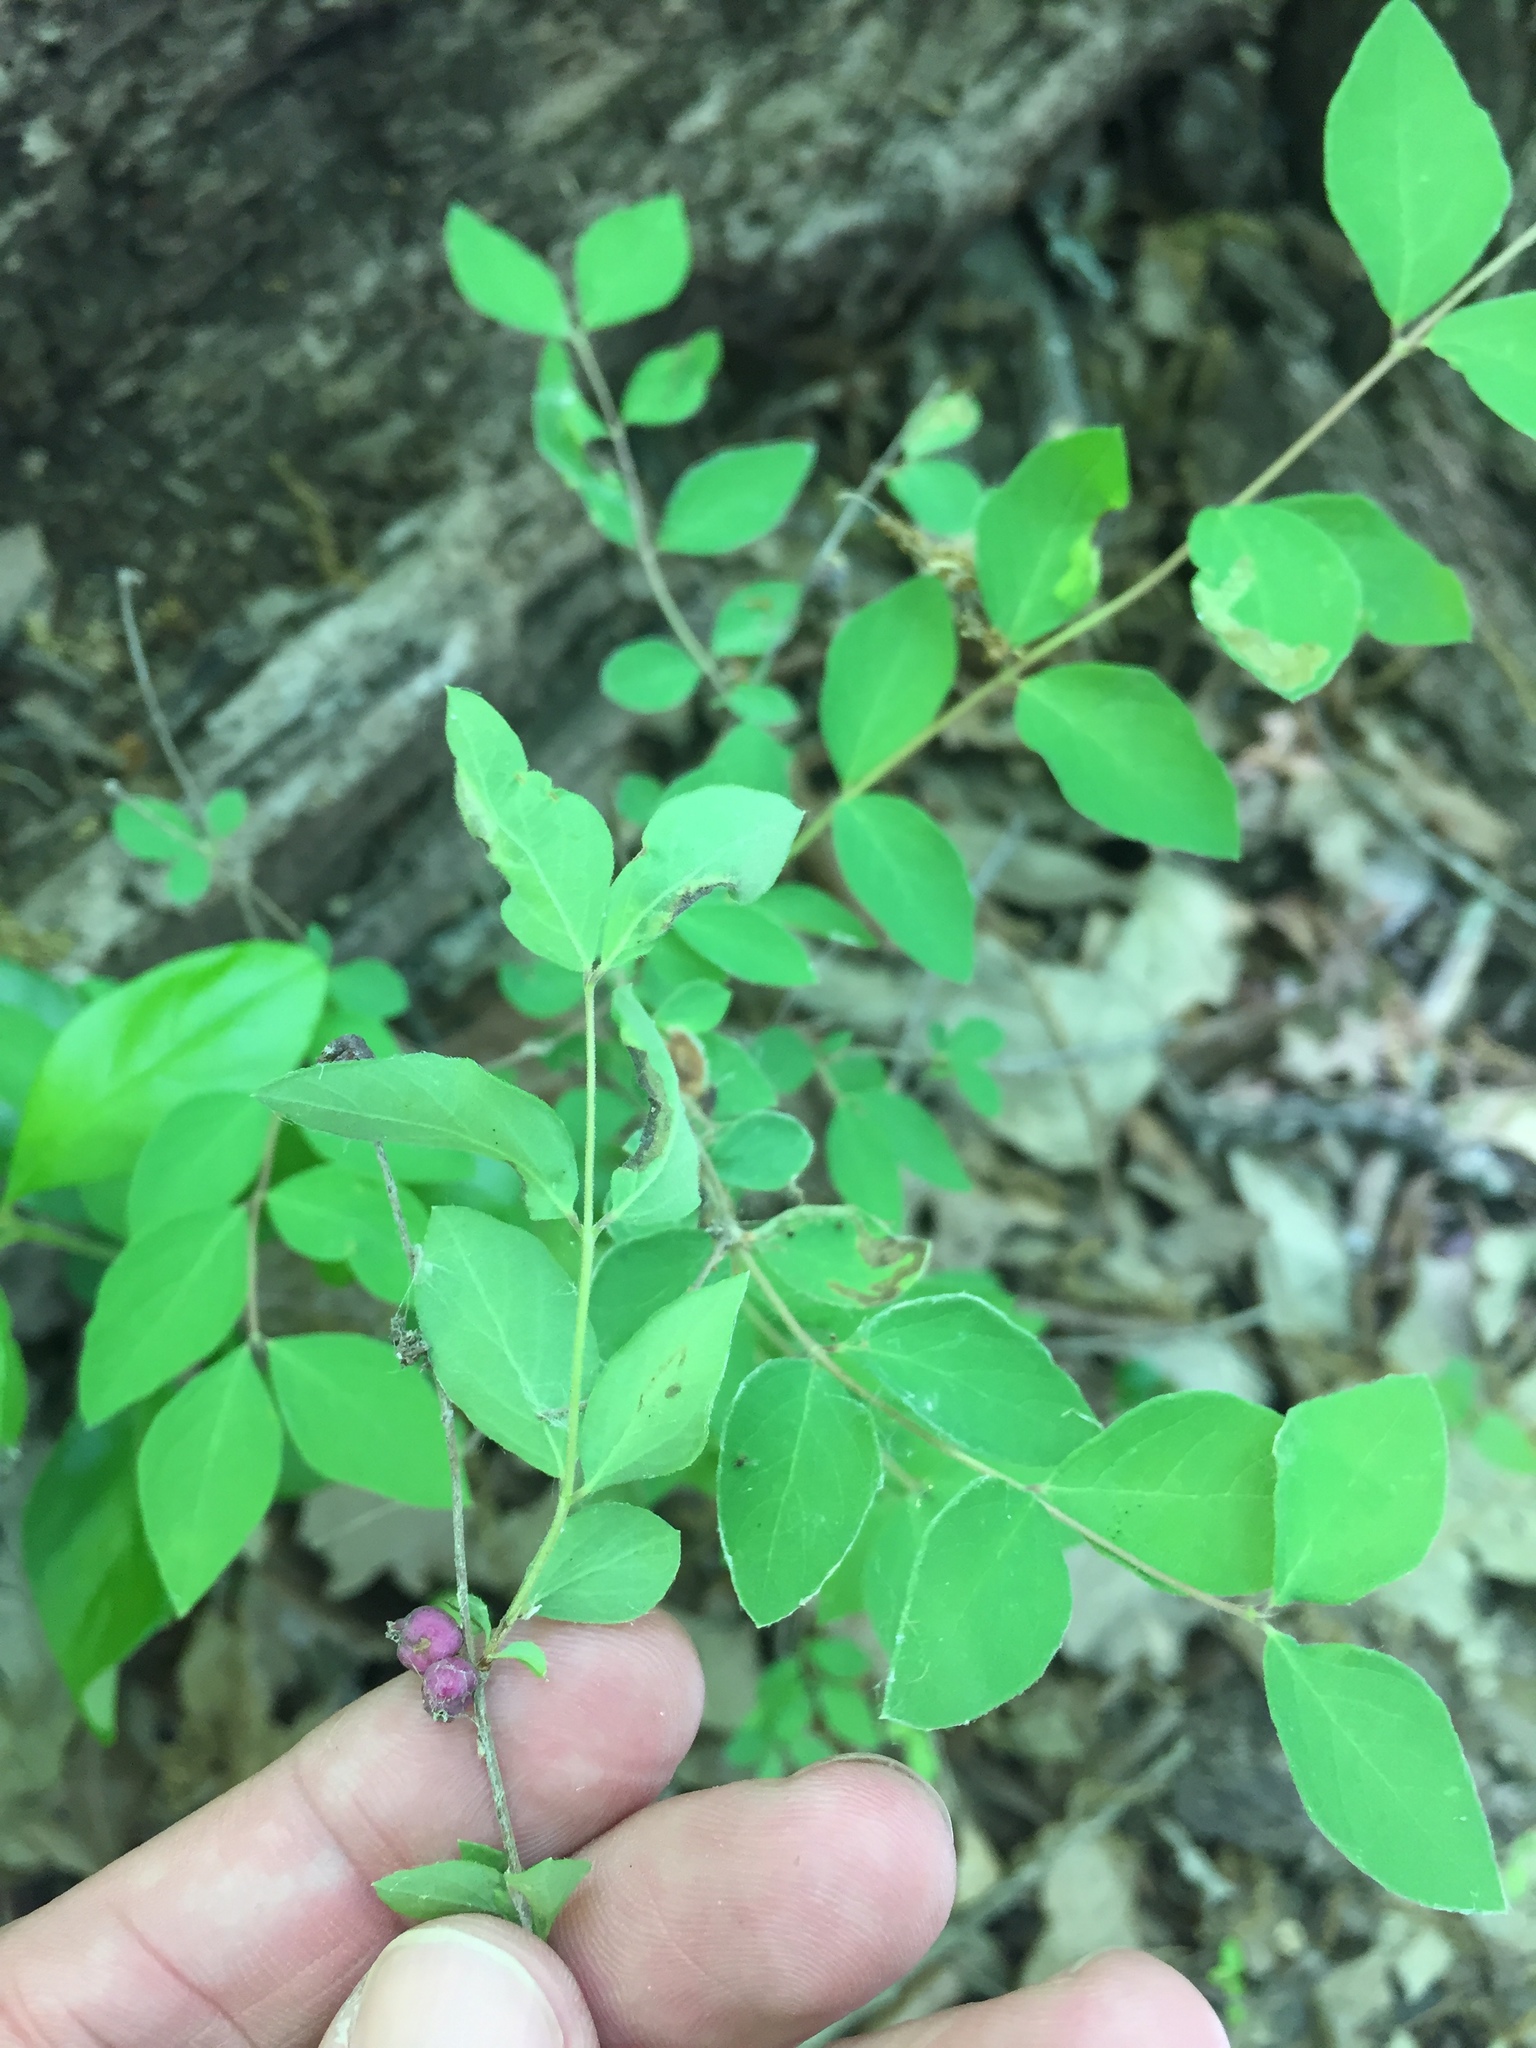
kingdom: Plantae
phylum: Tracheophyta
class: Magnoliopsida
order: Dipsacales
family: Caprifoliaceae
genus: Symphoricarpos
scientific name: Symphoricarpos orbiculatus
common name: Coralberry
